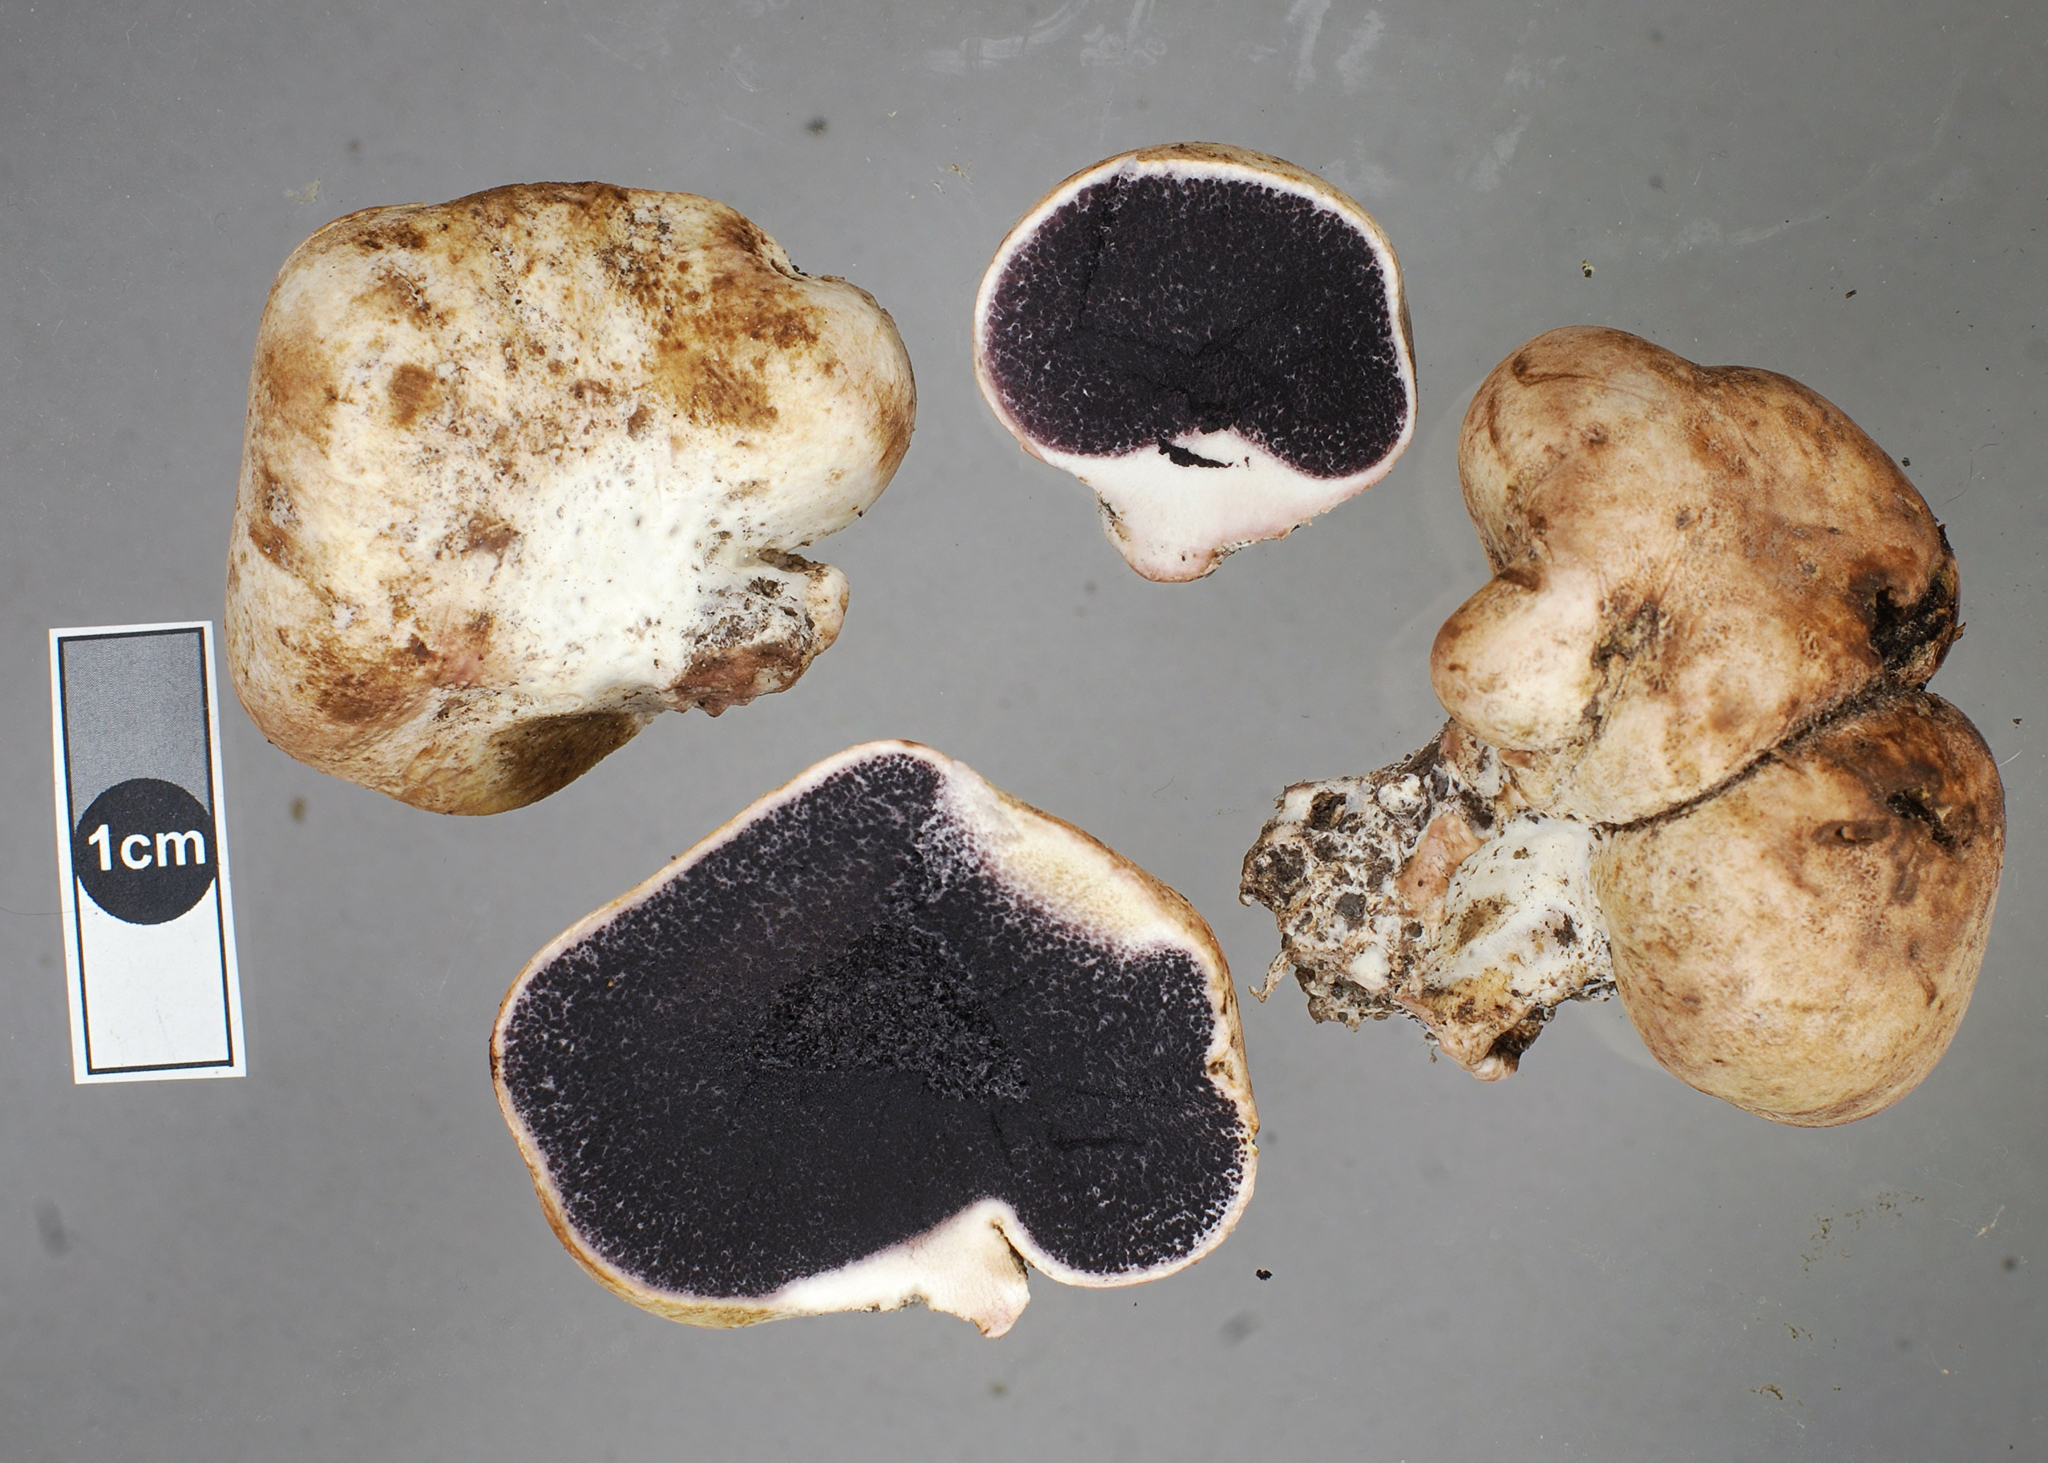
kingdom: Fungi
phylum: Basidiomycota
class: Agaricomycetes
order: Boletales
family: Sclerodermataceae
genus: Scleroderma
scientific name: Scleroderma bovista
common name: Potato earthball
